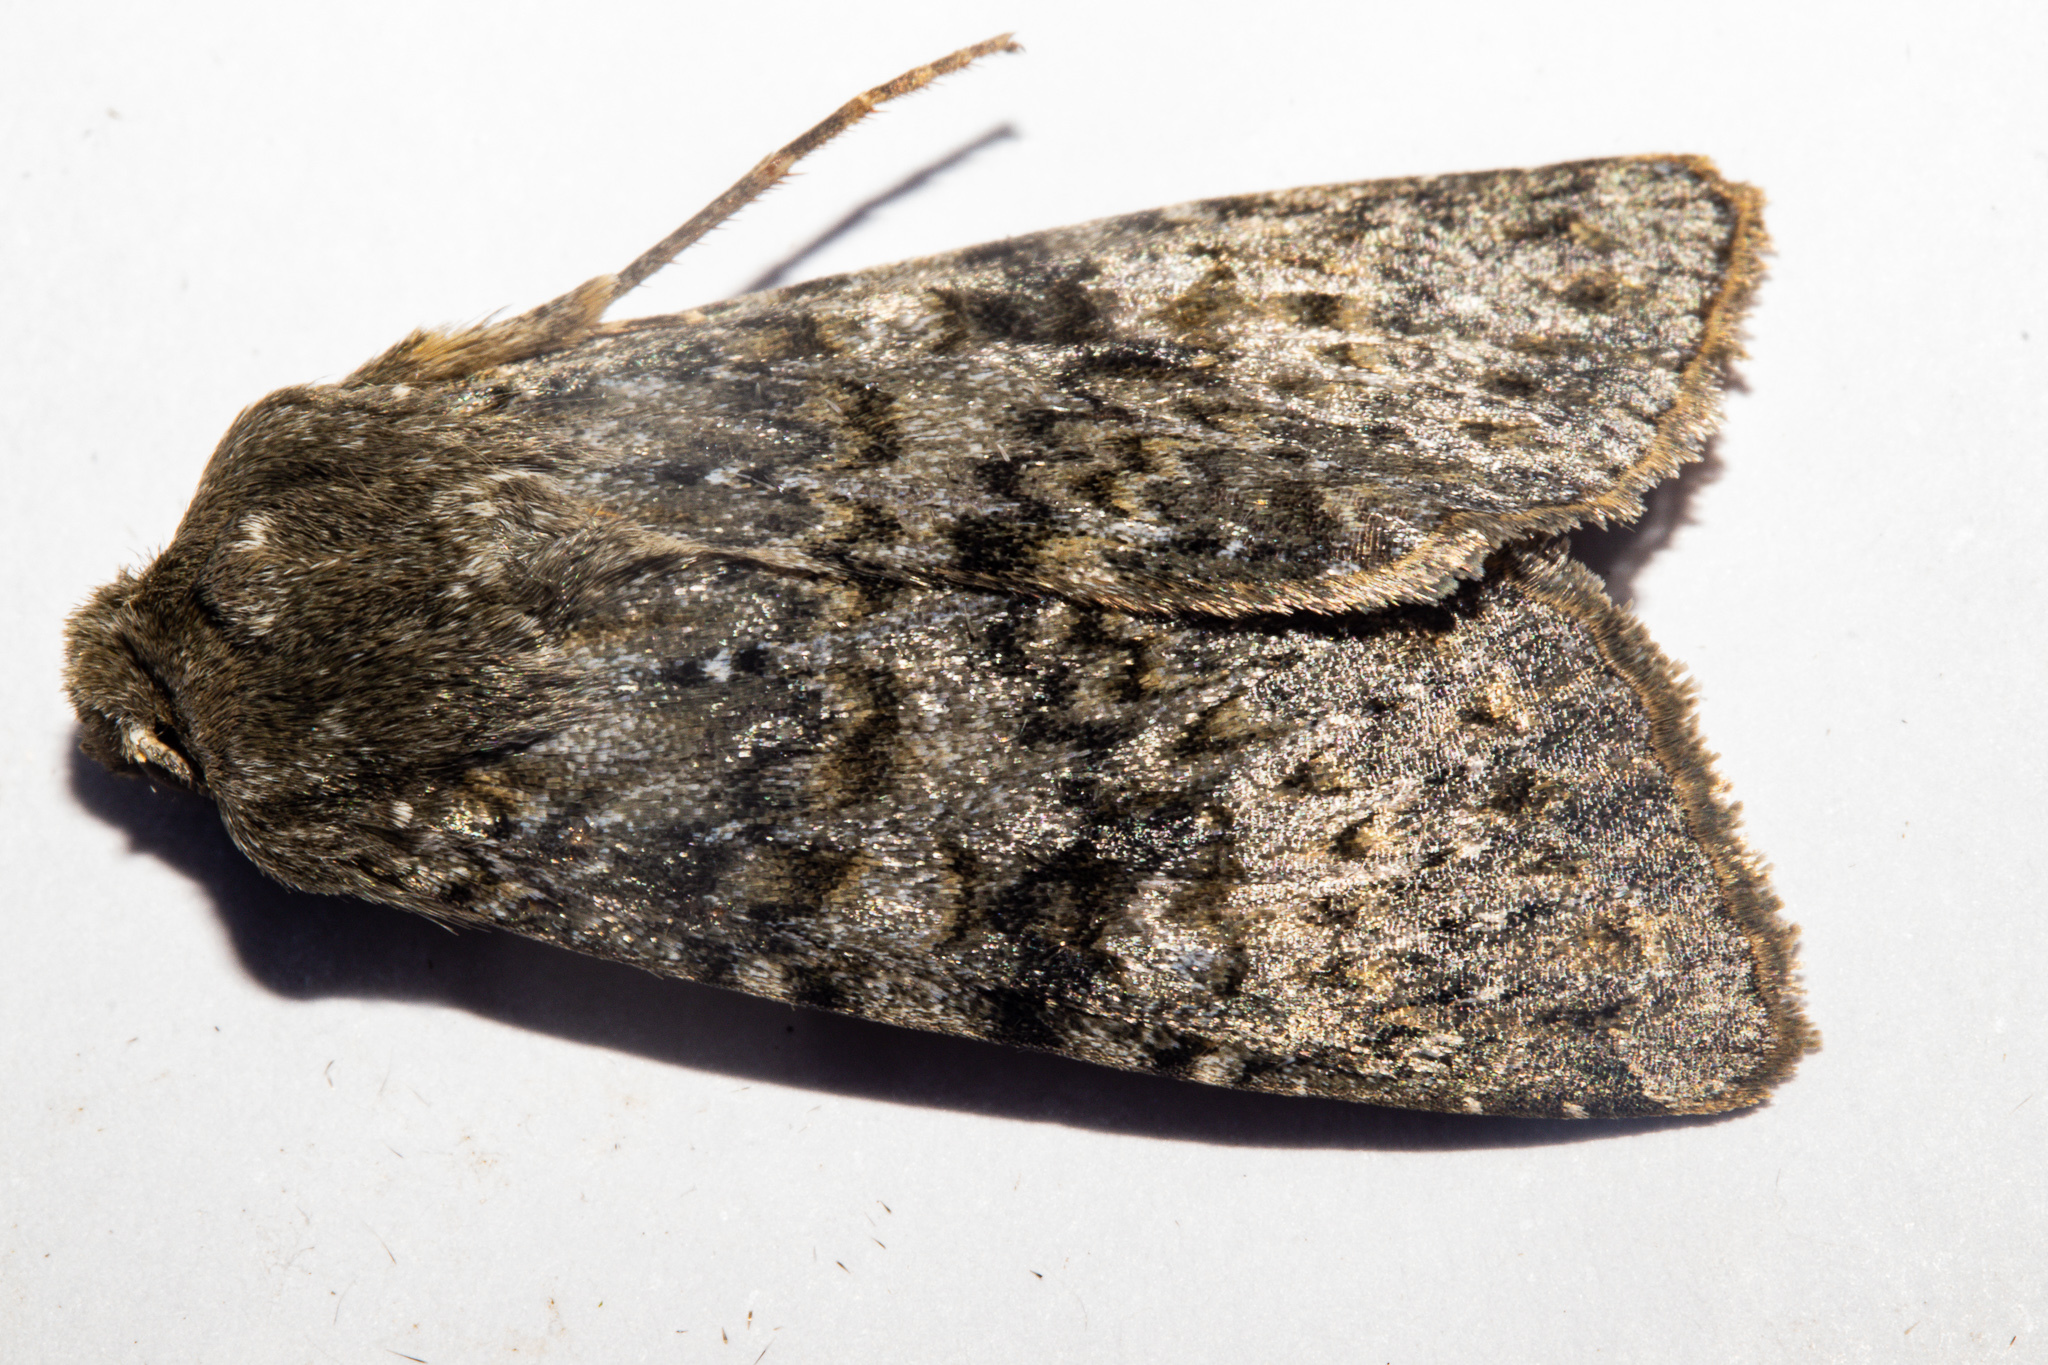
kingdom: Animalia
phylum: Arthropoda
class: Insecta
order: Lepidoptera
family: Noctuidae
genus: Ichneutica
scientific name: Ichneutica
